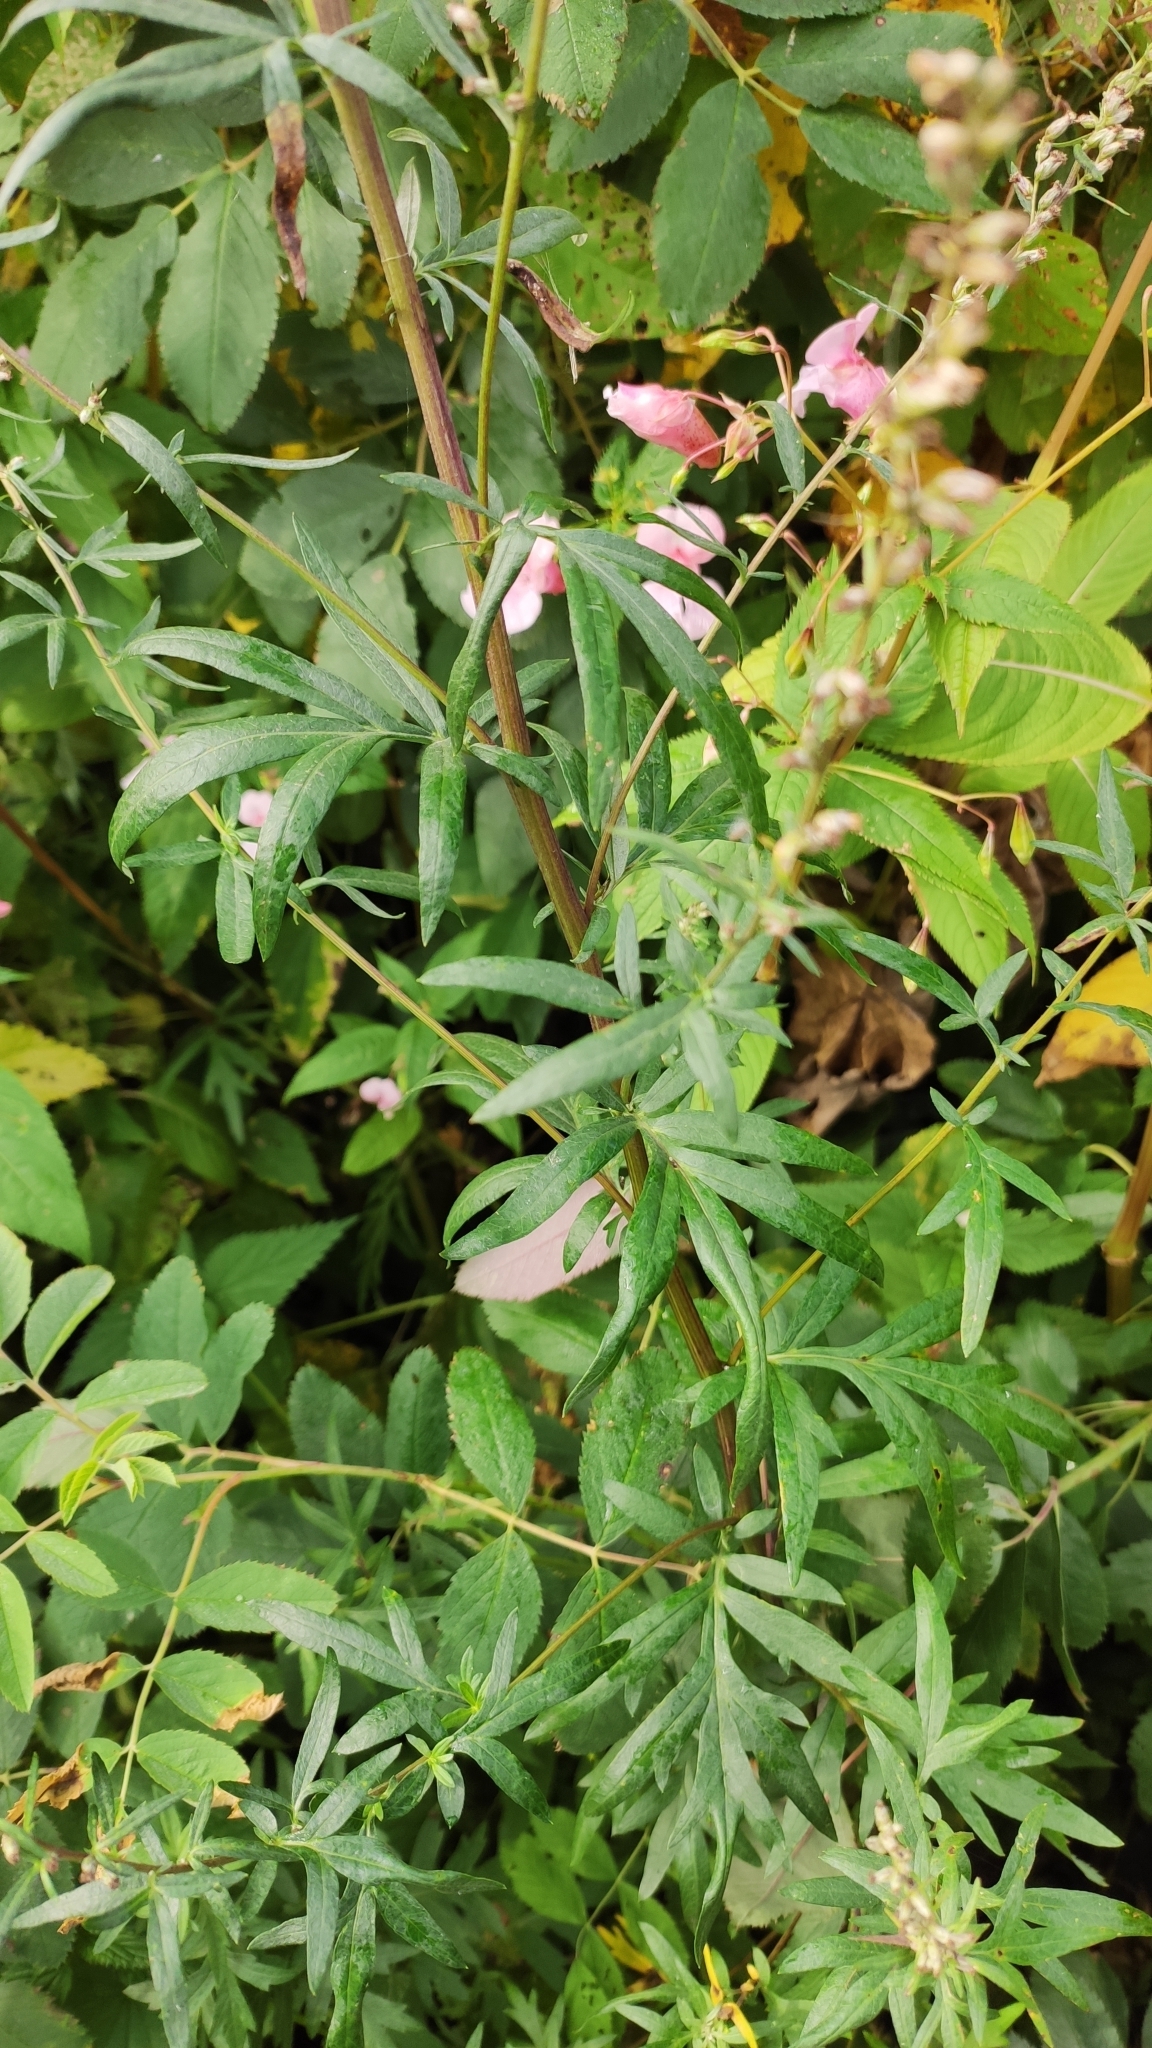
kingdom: Plantae
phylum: Tracheophyta
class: Magnoliopsida
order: Asterales
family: Asteraceae
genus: Artemisia
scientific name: Artemisia vulgaris
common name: Mugwort
